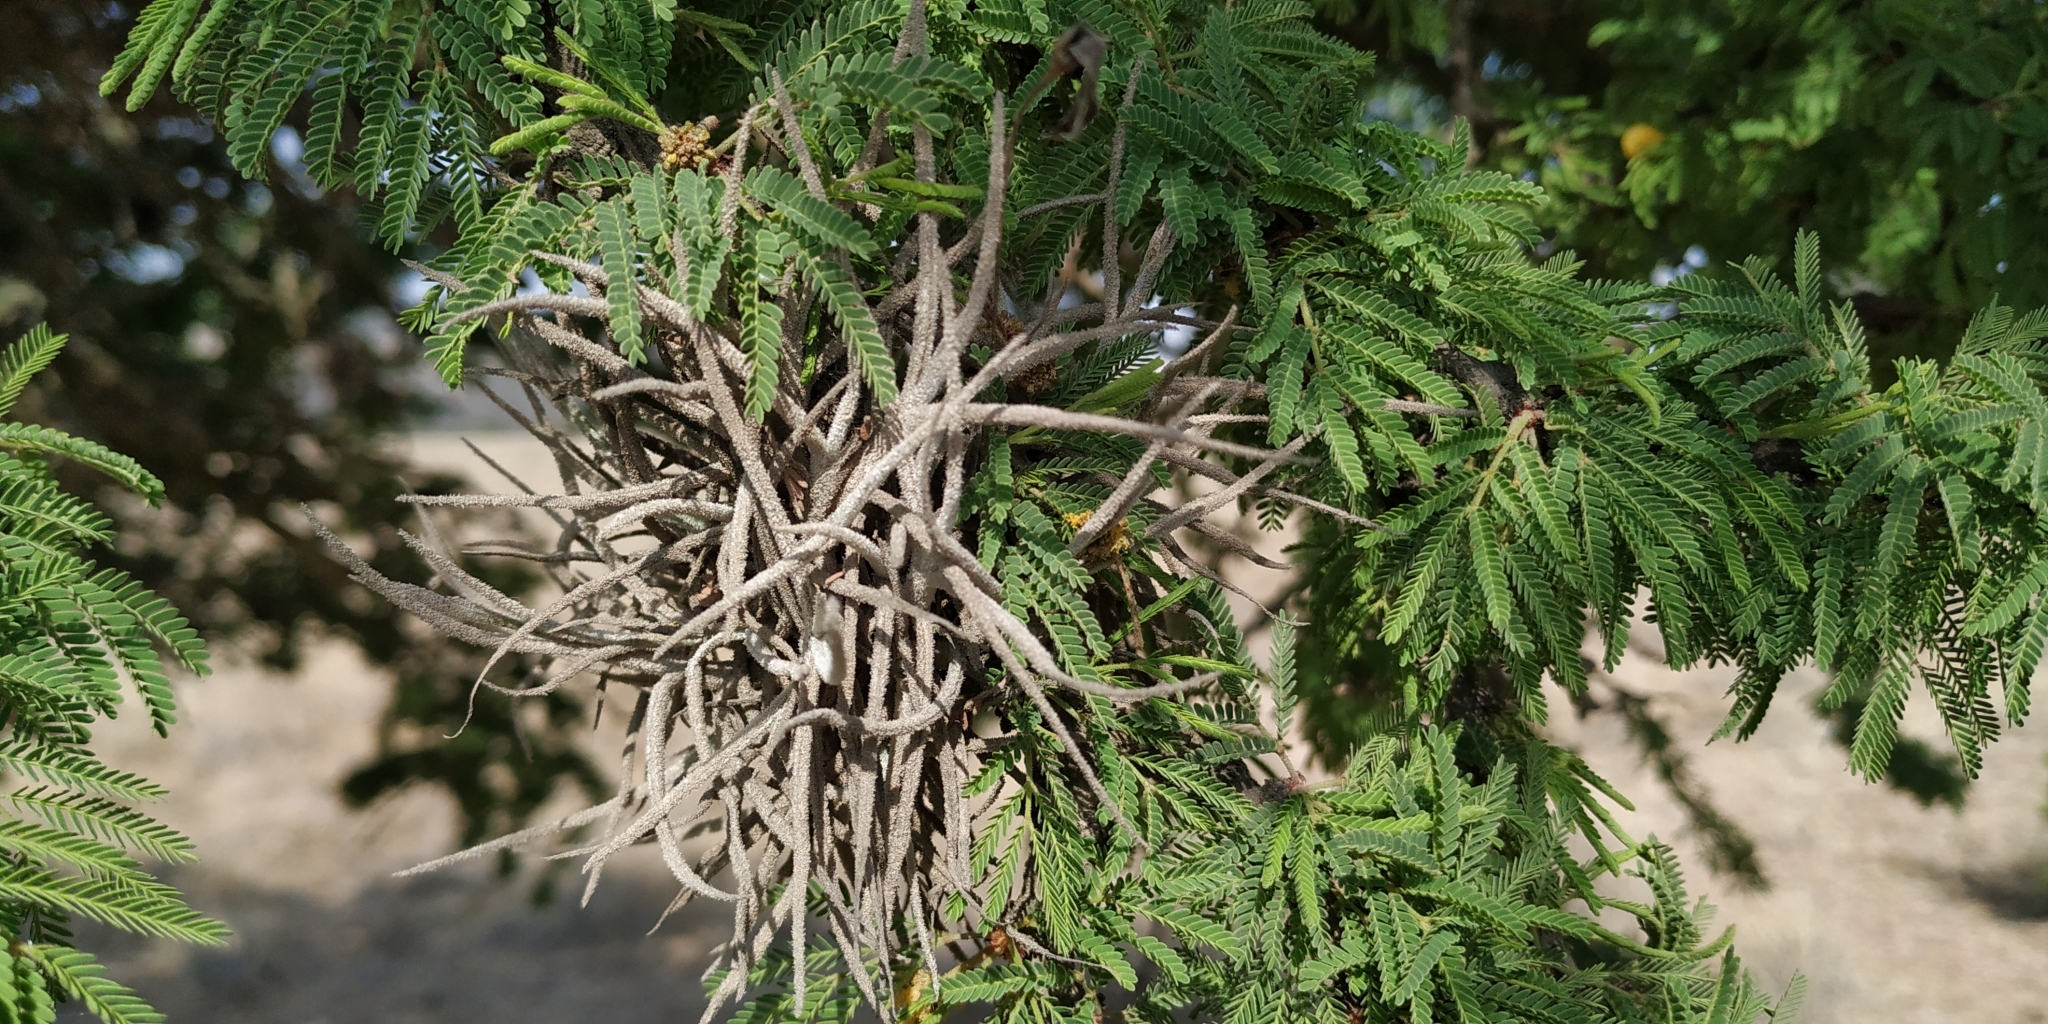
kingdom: Plantae
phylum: Tracheophyta
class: Liliopsida
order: Poales
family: Bromeliaceae
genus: Tillandsia
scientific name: Tillandsia recurvata
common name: Small ballmoss
